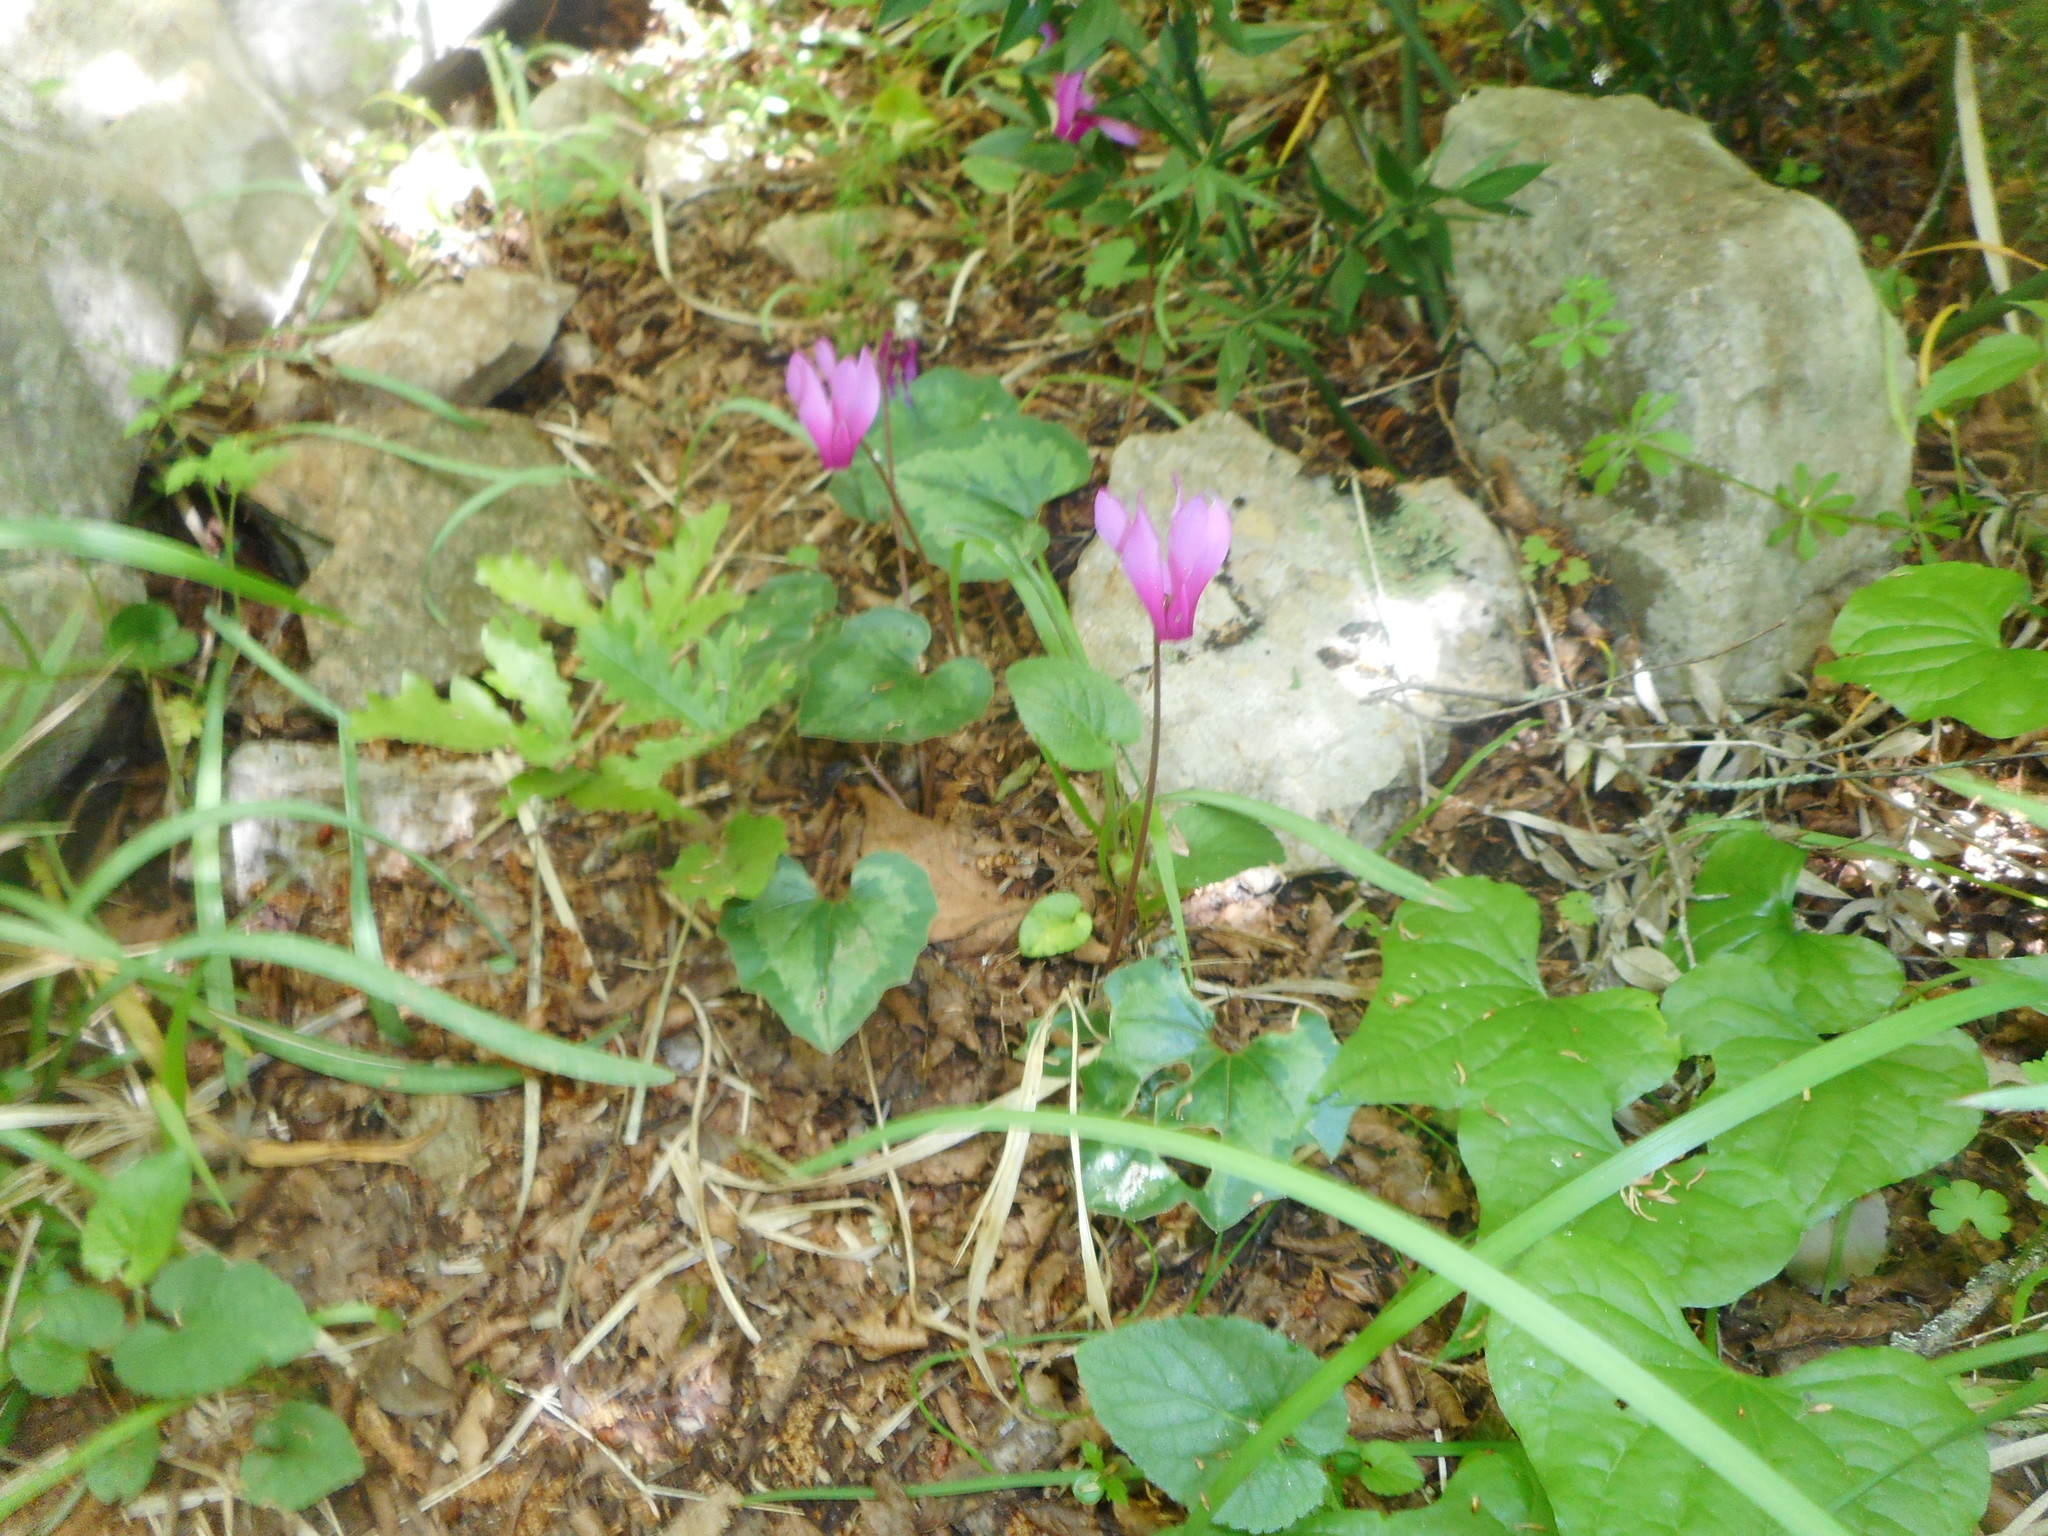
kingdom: Plantae
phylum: Tracheophyta
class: Magnoliopsida
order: Ericales
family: Primulaceae
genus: Cyclamen
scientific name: Cyclamen repandum
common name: Spring sowbread
